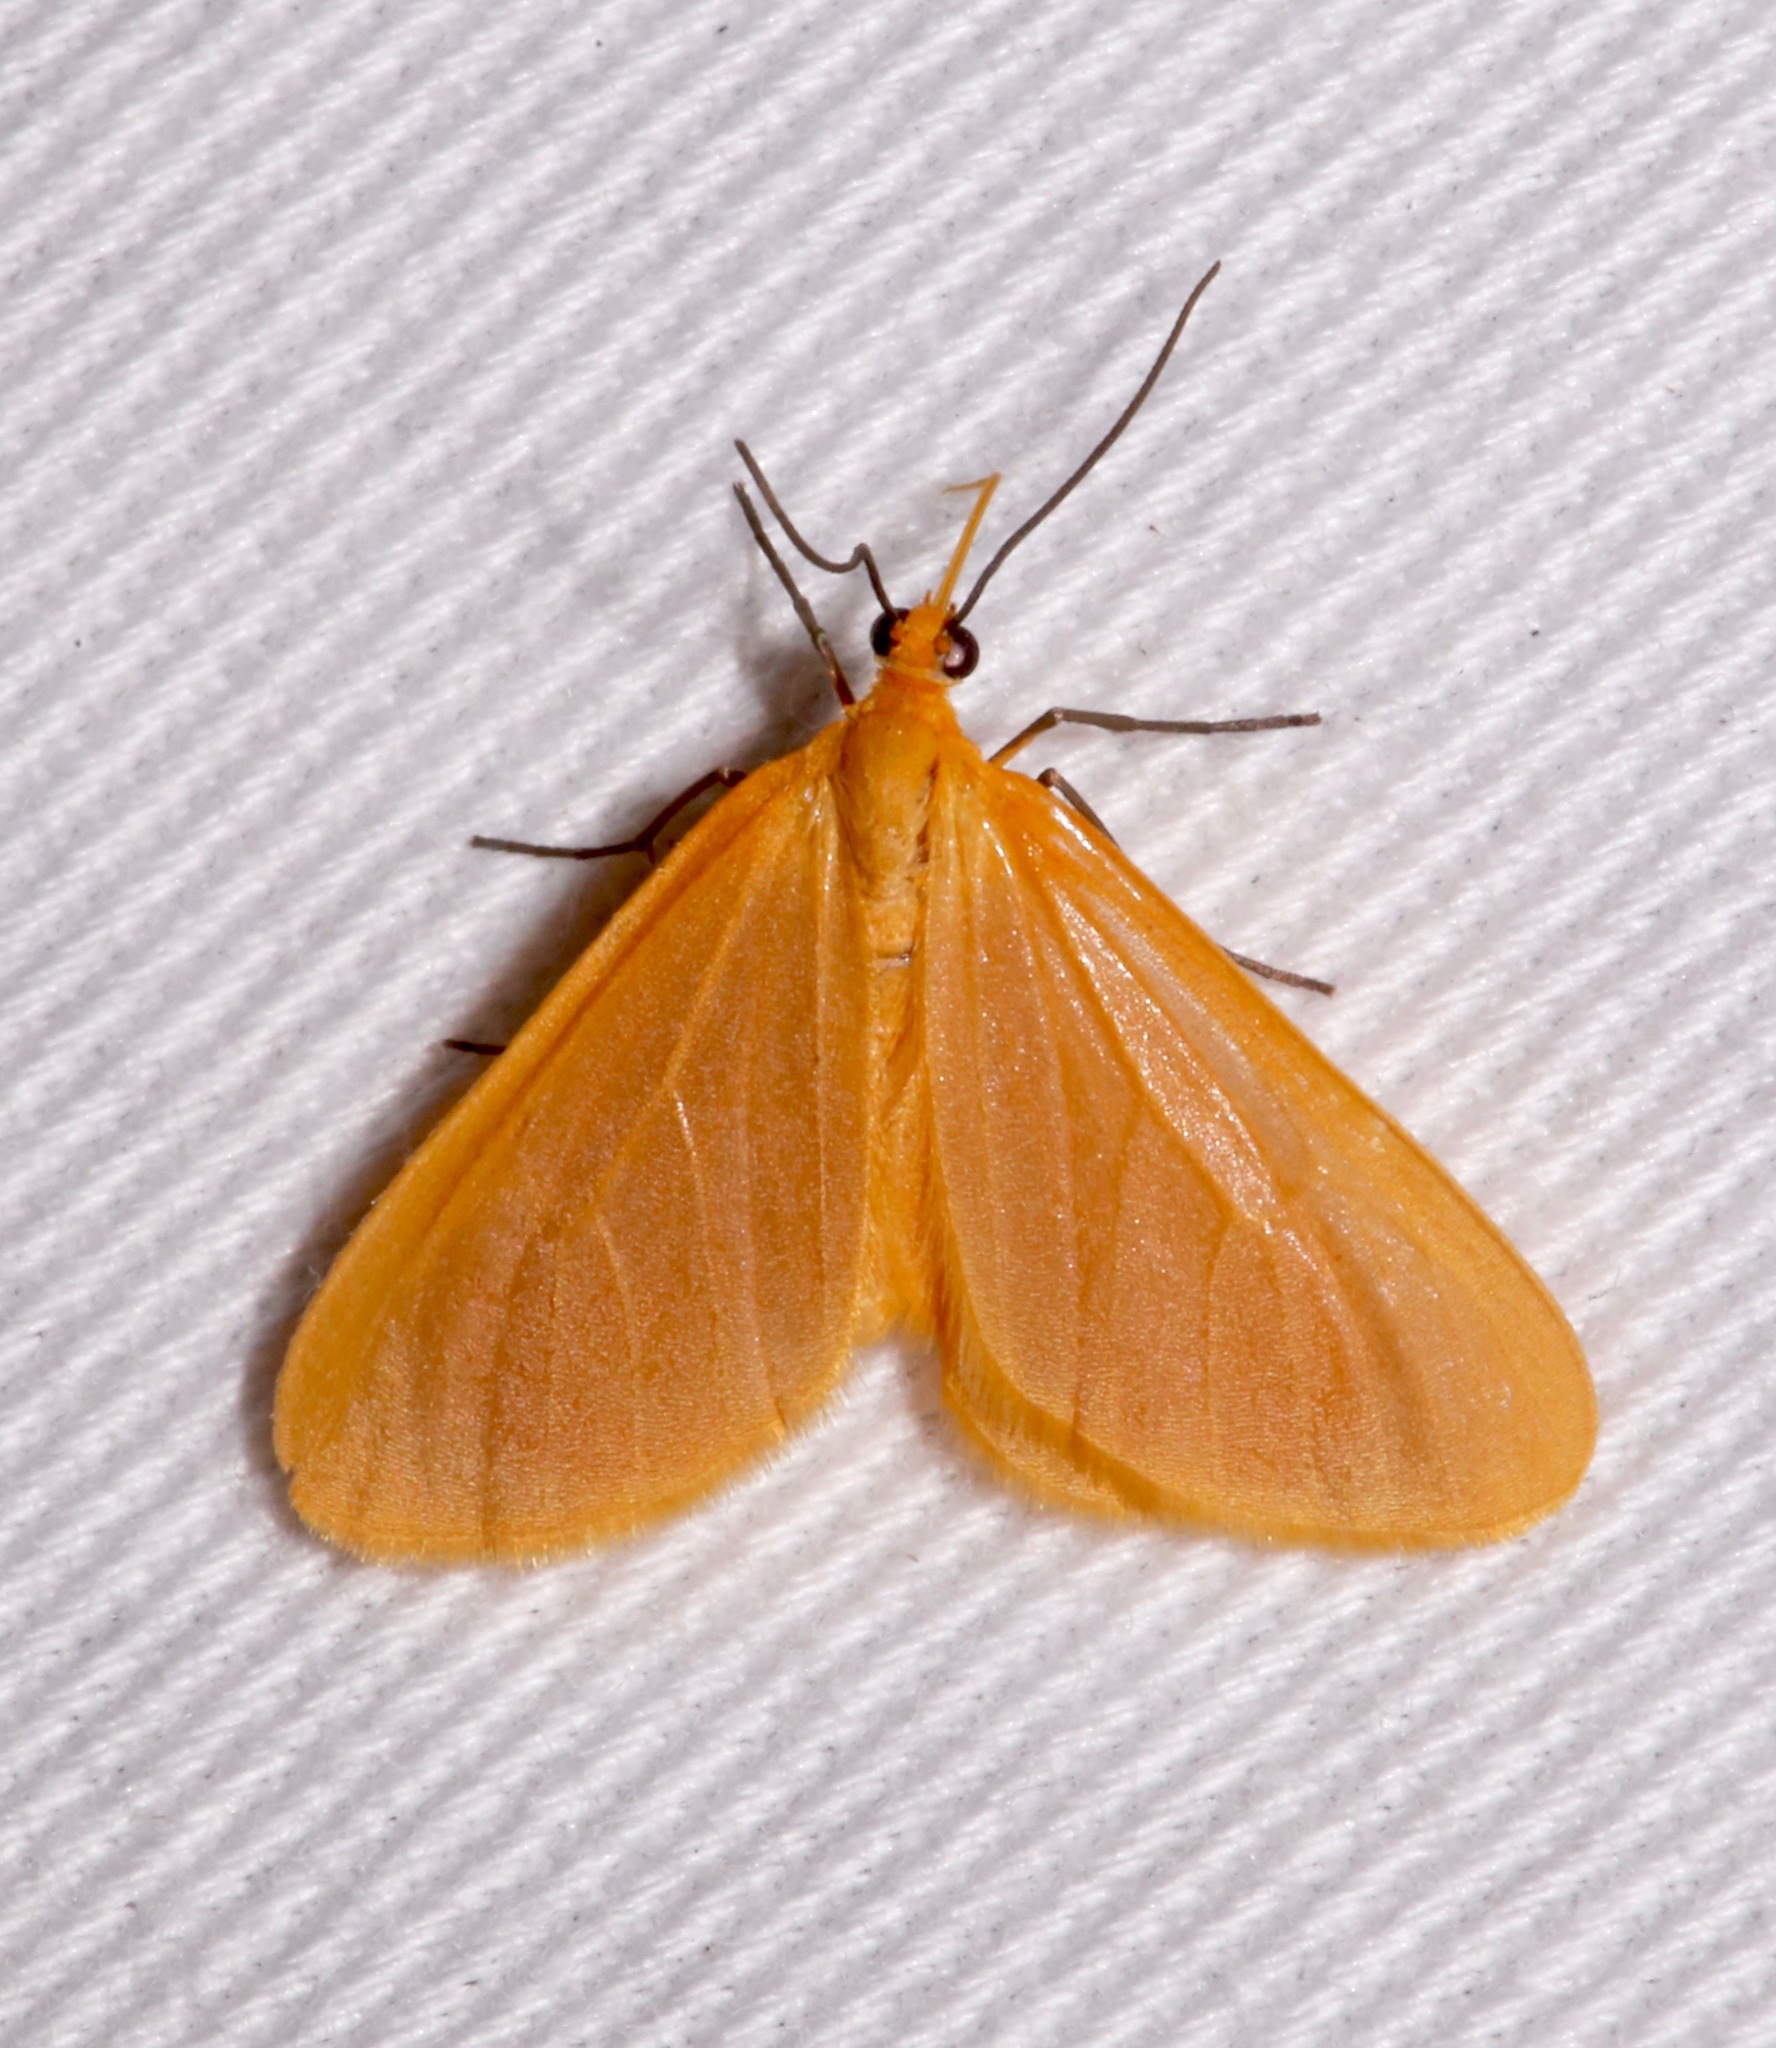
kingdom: Animalia
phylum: Arthropoda
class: Insecta
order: Lepidoptera
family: Geometridae
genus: Eubaphe
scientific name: Eubaphe unicolor
